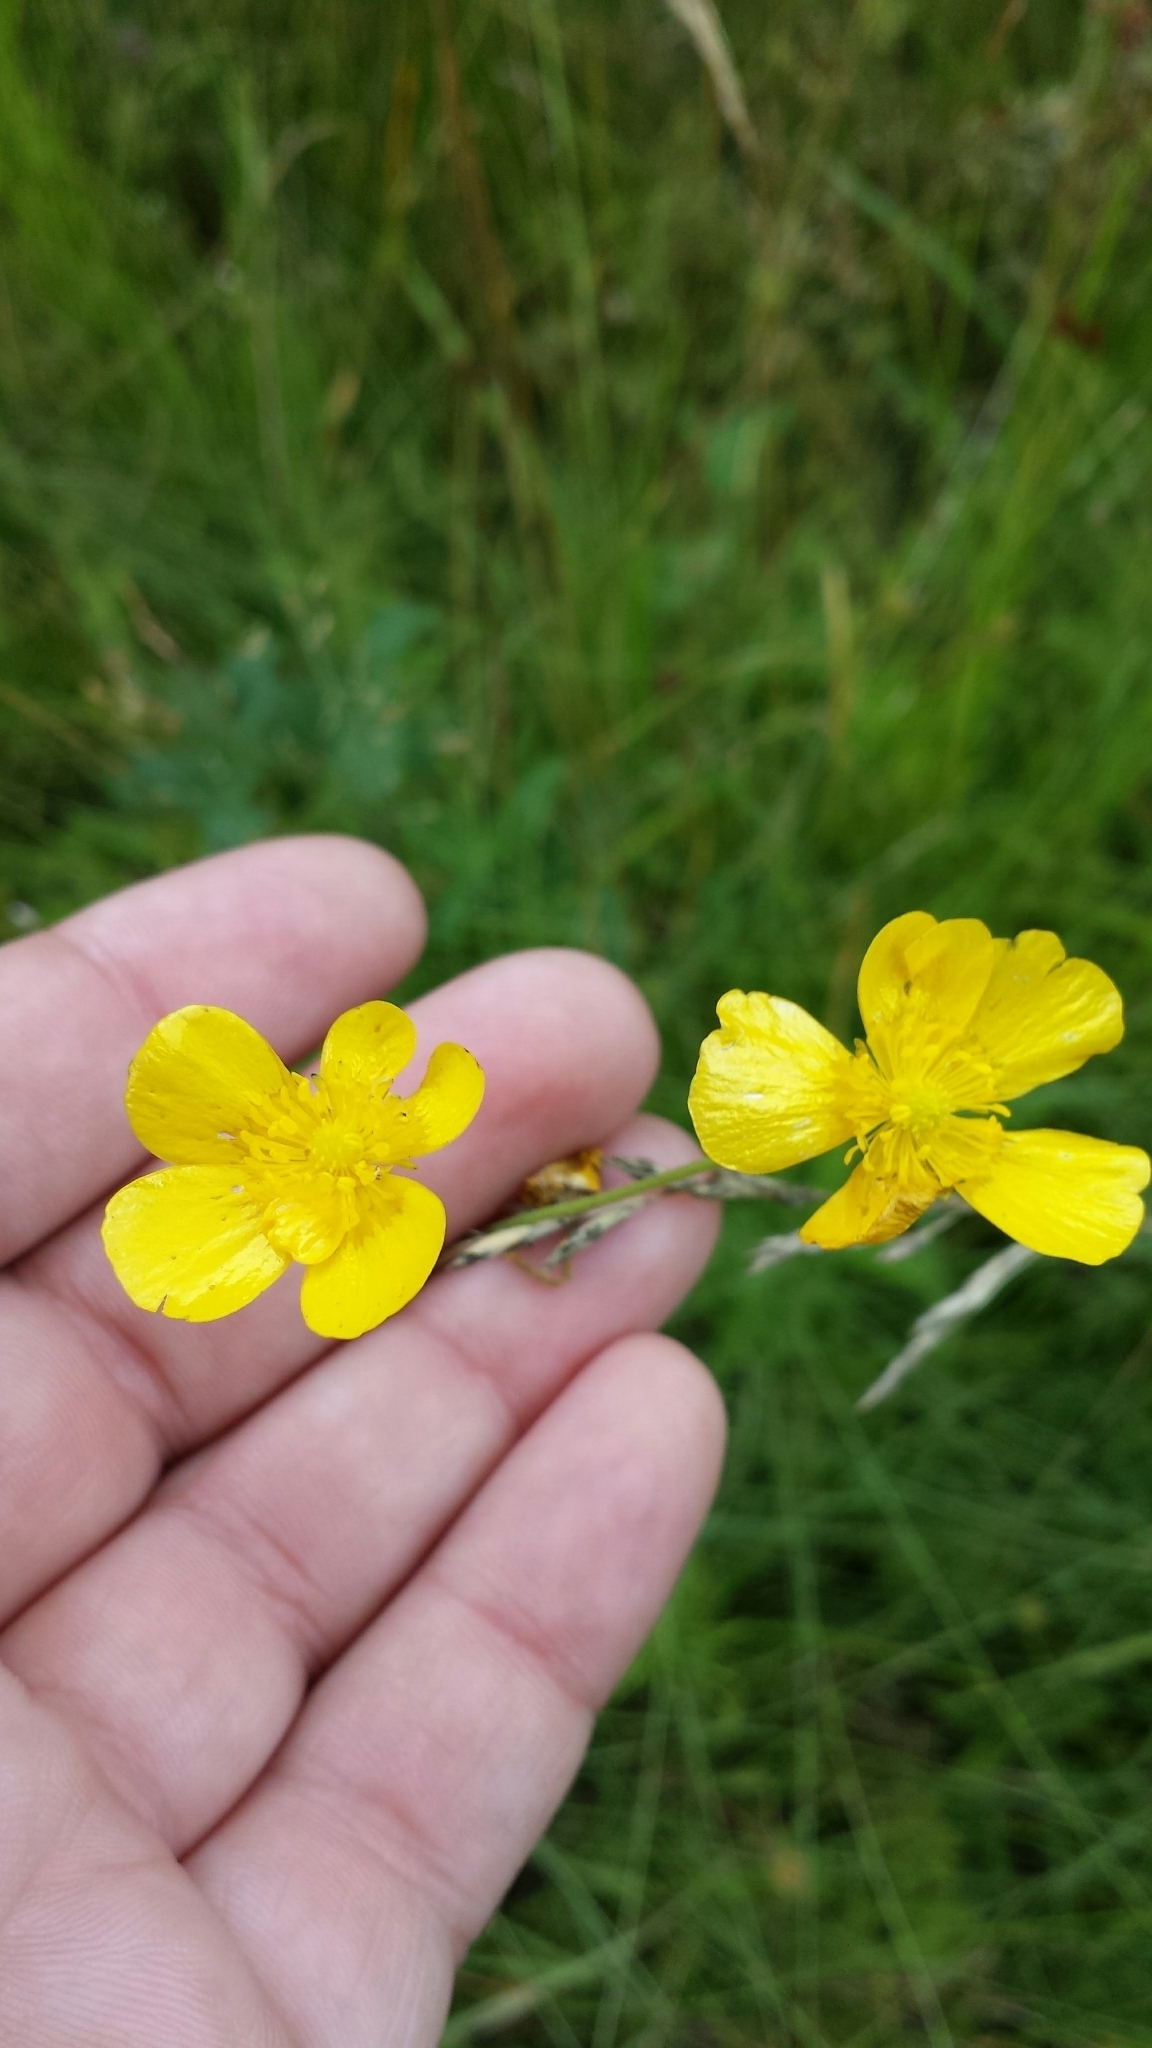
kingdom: Plantae
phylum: Tracheophyta
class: Magnoliopsida
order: Ranunculales
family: Ranunculaceae
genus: Ranunculus
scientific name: Ranunculus acris
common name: Meadow buttercup
